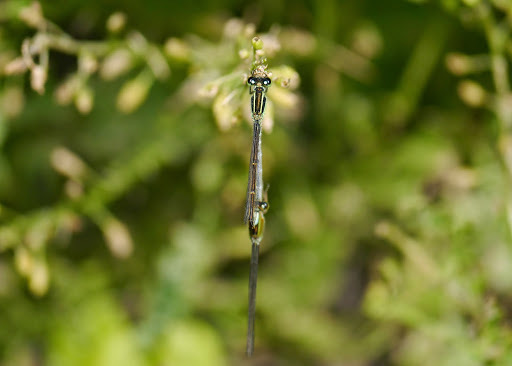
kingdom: Animalia
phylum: Arthropoda
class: Insecta
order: Odonata
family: Coenagrionidae
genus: Ischnura
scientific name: Ischnura ramburii
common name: Rambur's forktail
